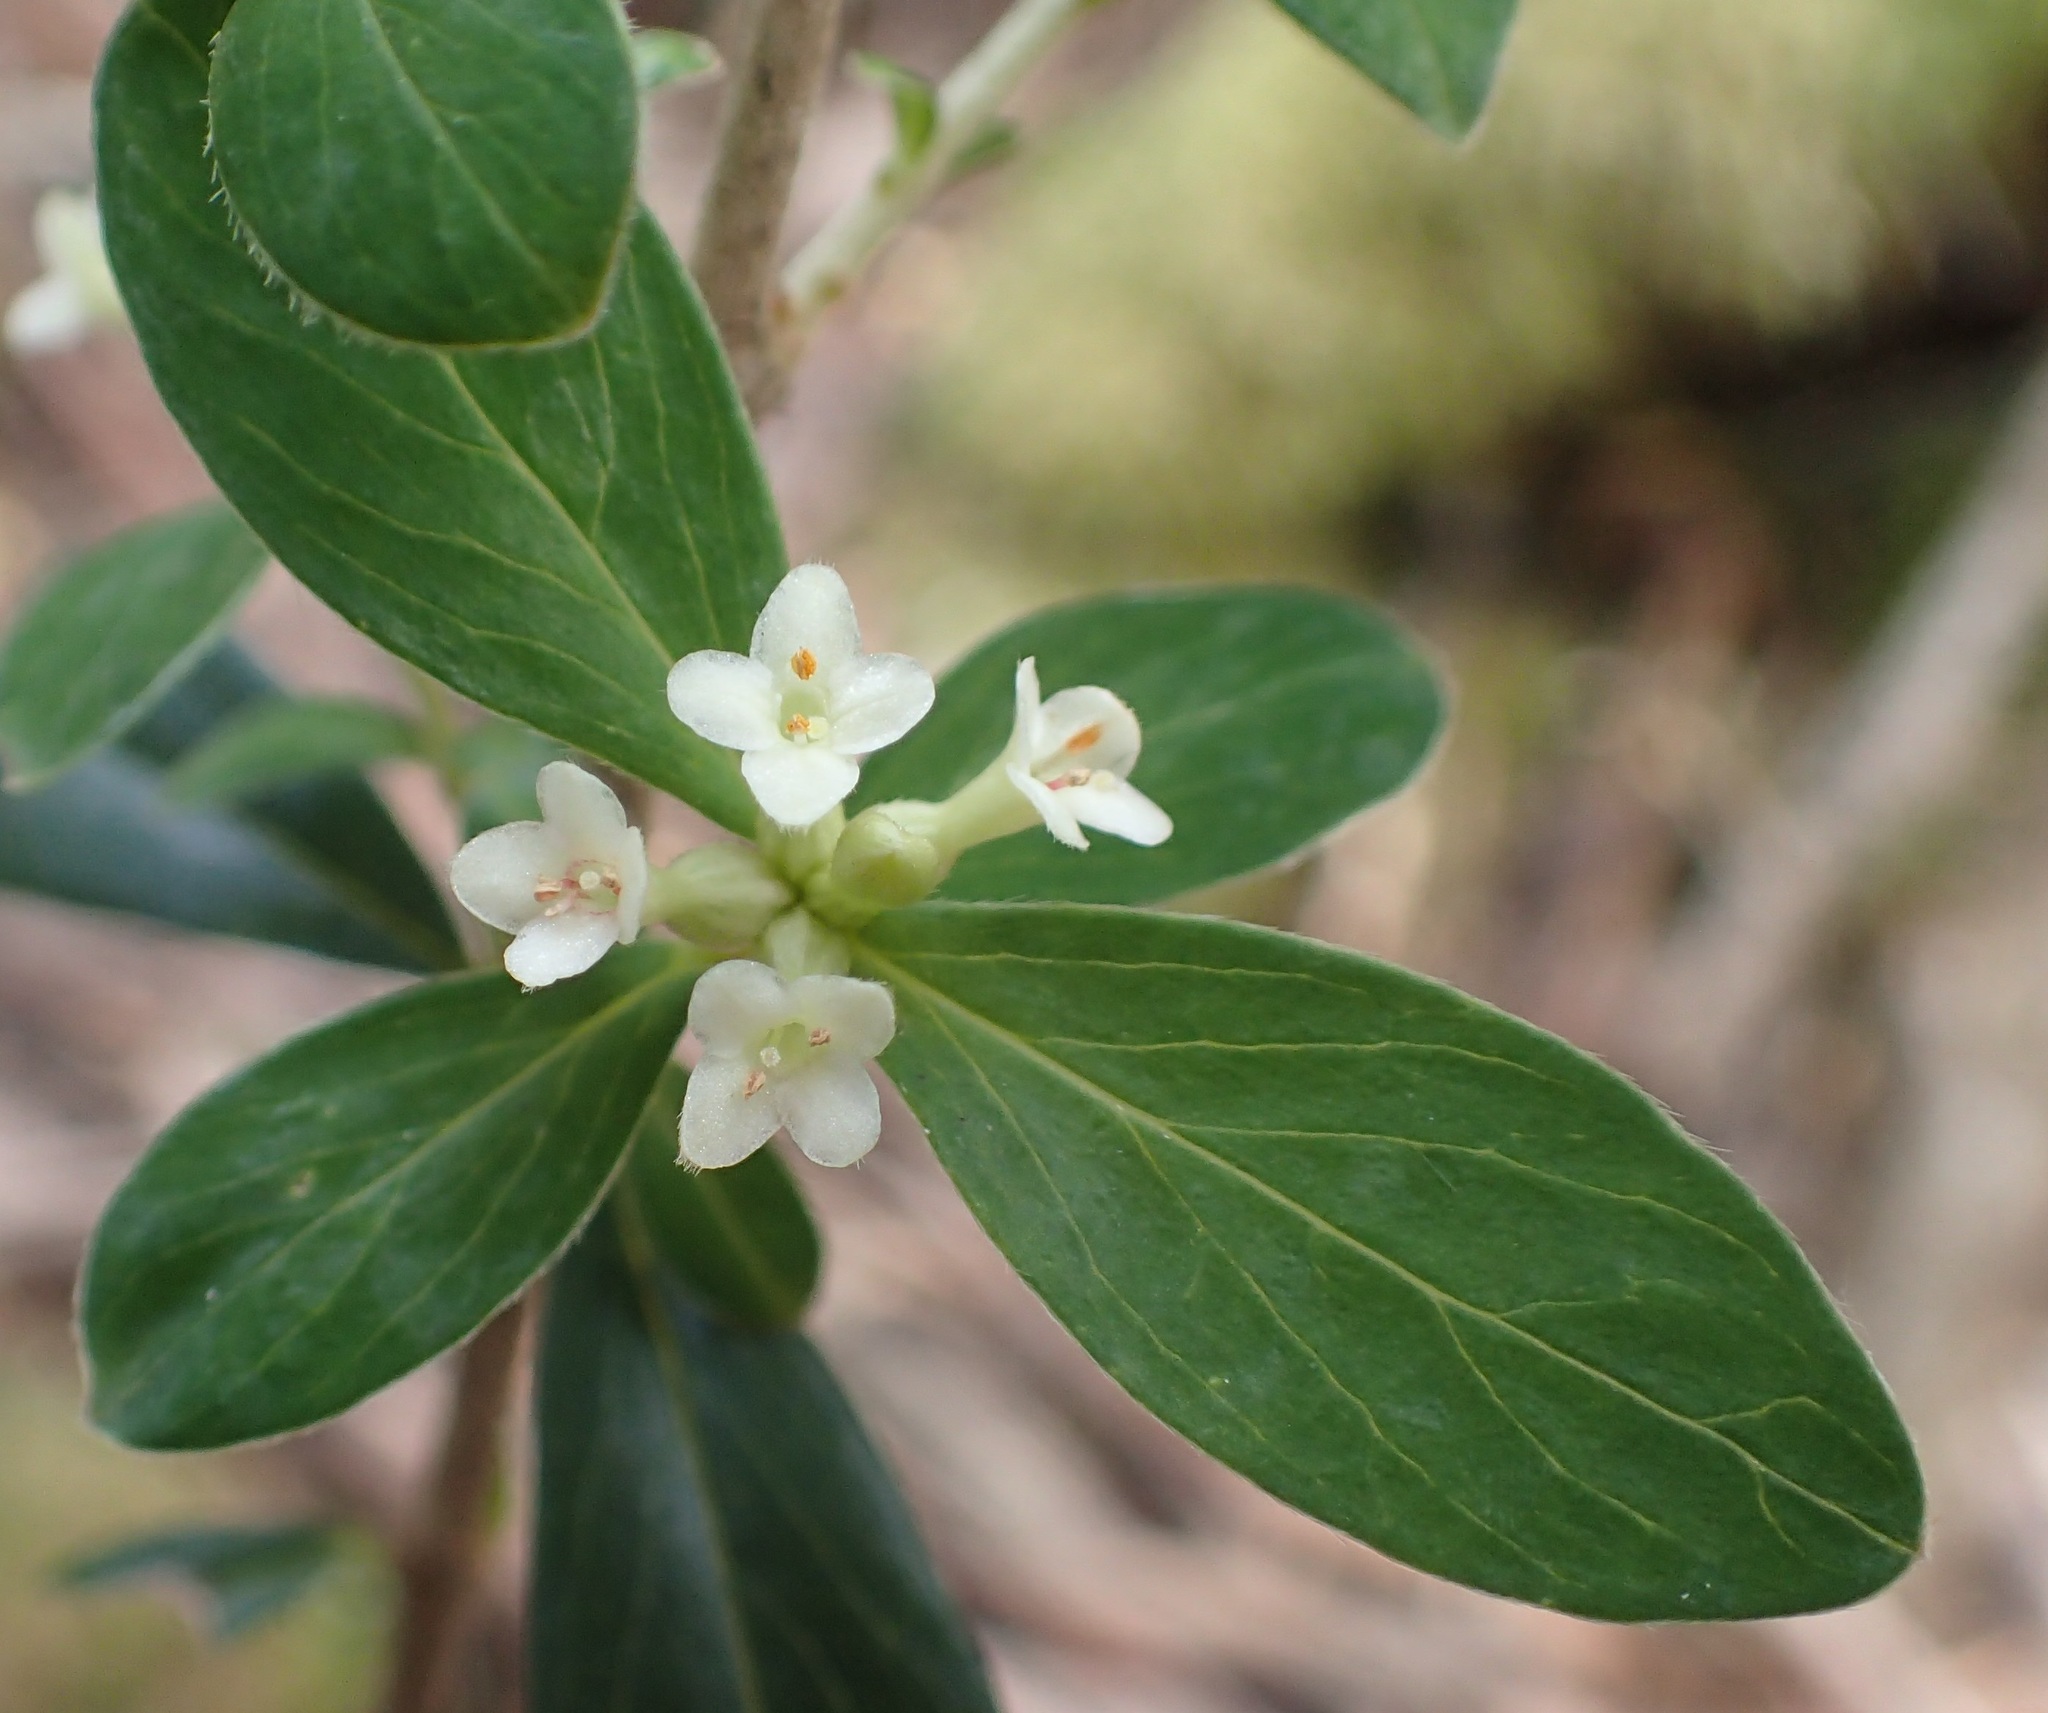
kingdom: Plantae
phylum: Tracheophyta
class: Magnoliopsida
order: Malvales
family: Thymelaeaceae
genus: Pimelea
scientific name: Pimelea drupacea
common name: Cherry riceflower
